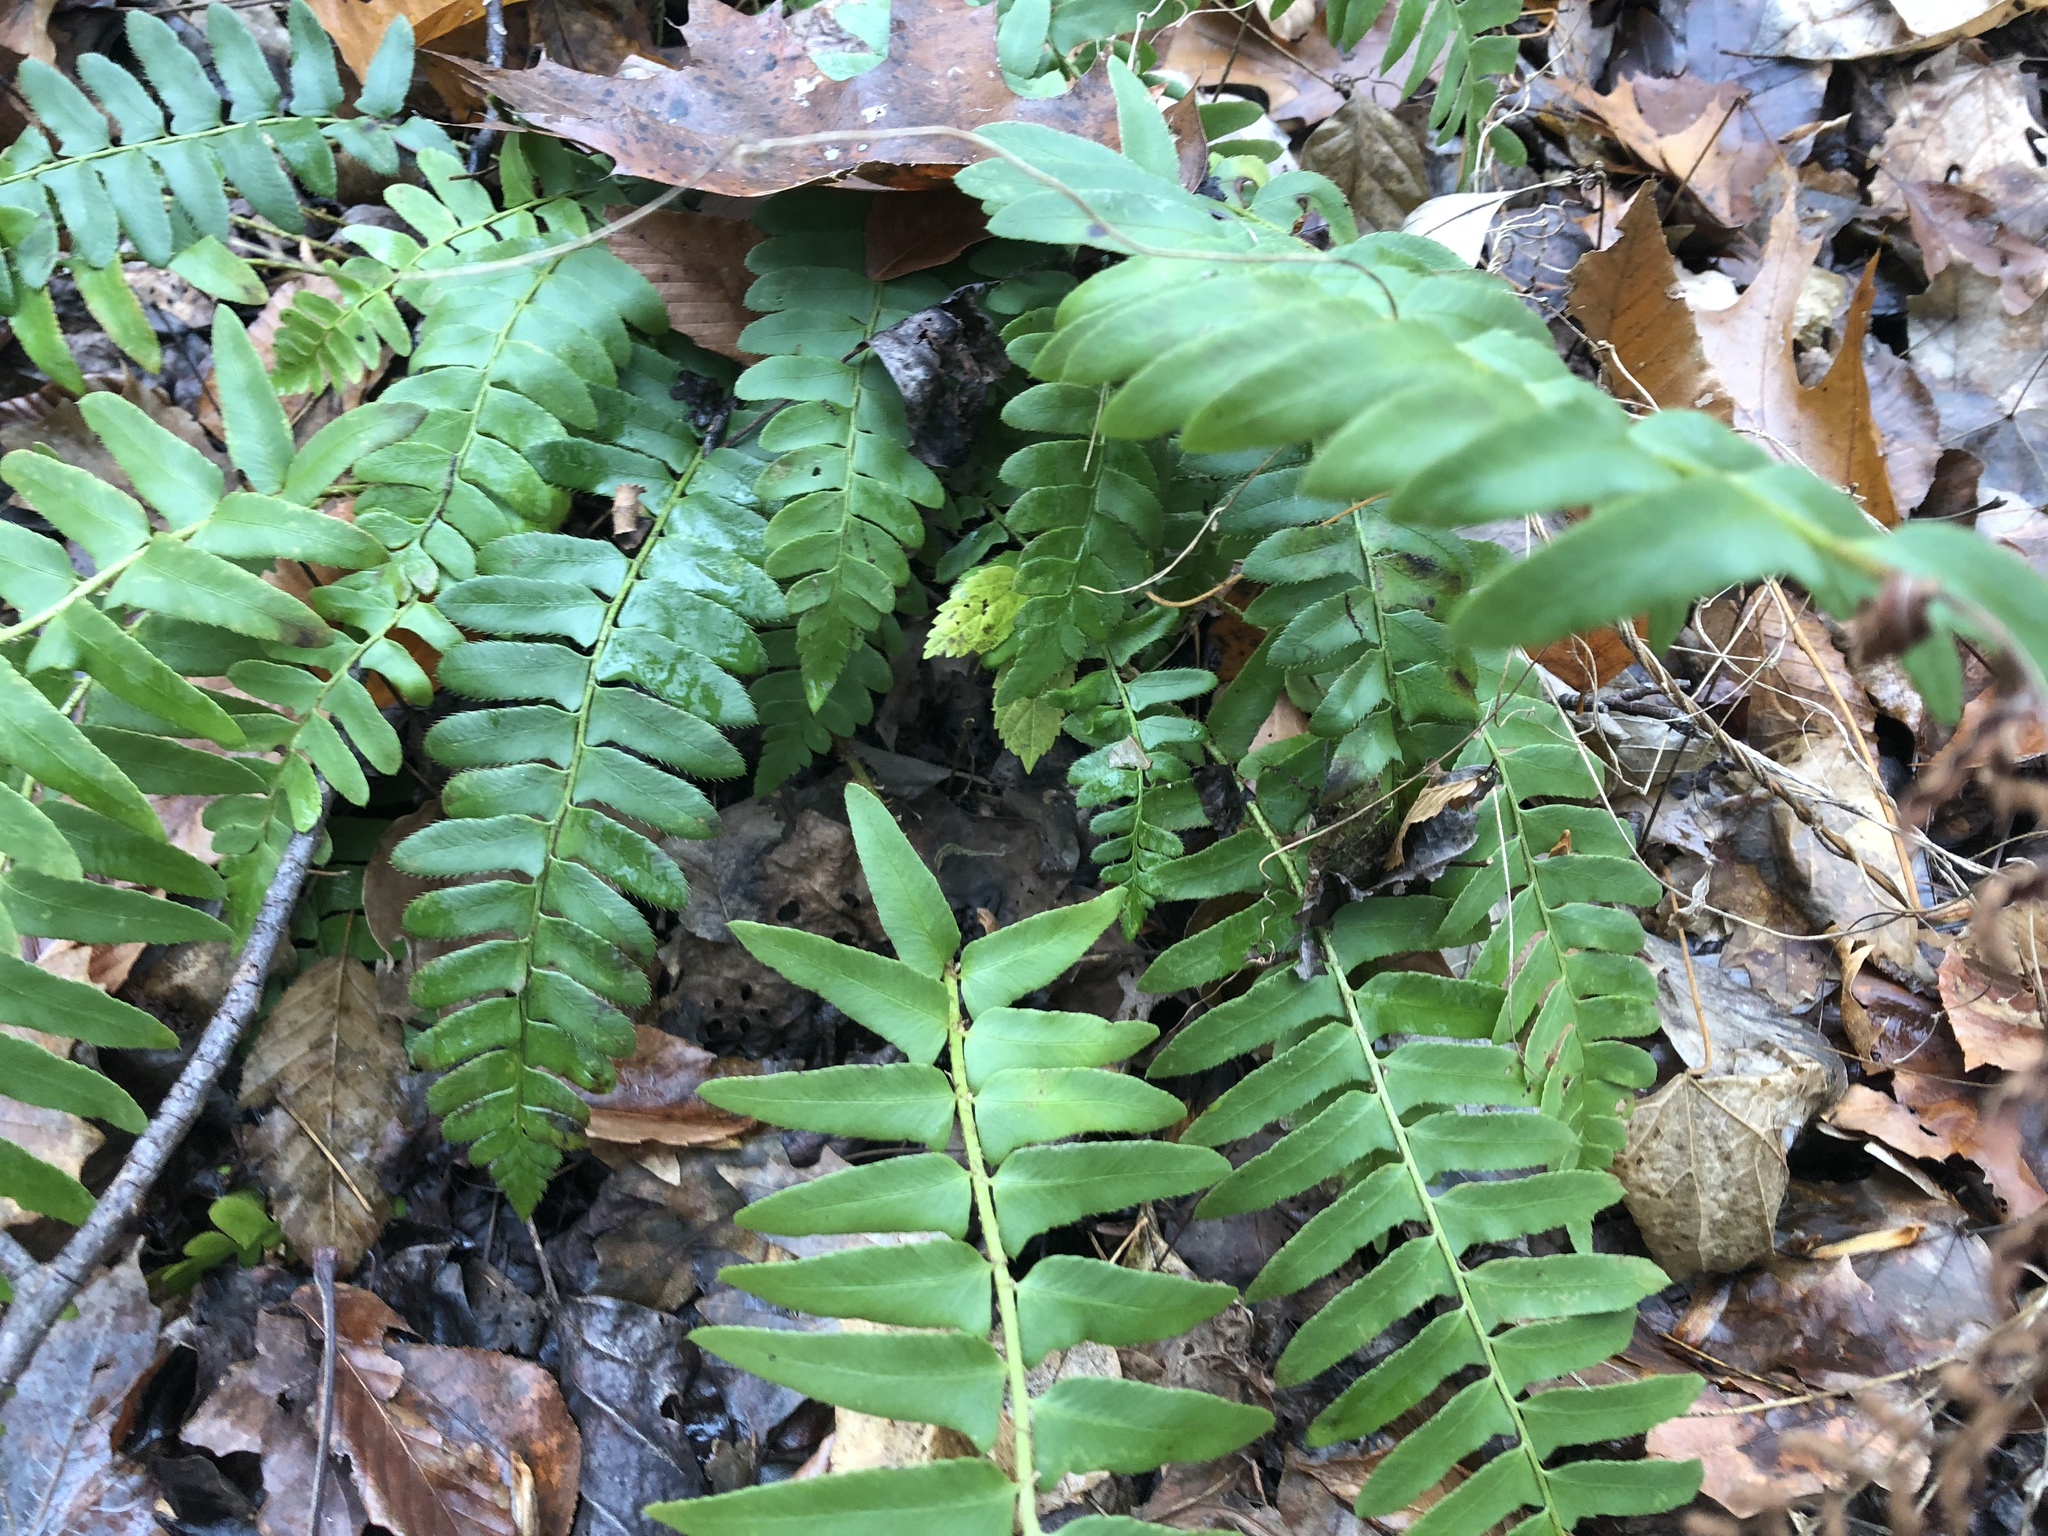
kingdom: Plantae
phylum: Tracheophyta
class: Polypodiopsida
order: Polypodiales
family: Dryopteridaceae
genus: Polystichum
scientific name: Polystichum acrostichoides
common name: Christmas fern
